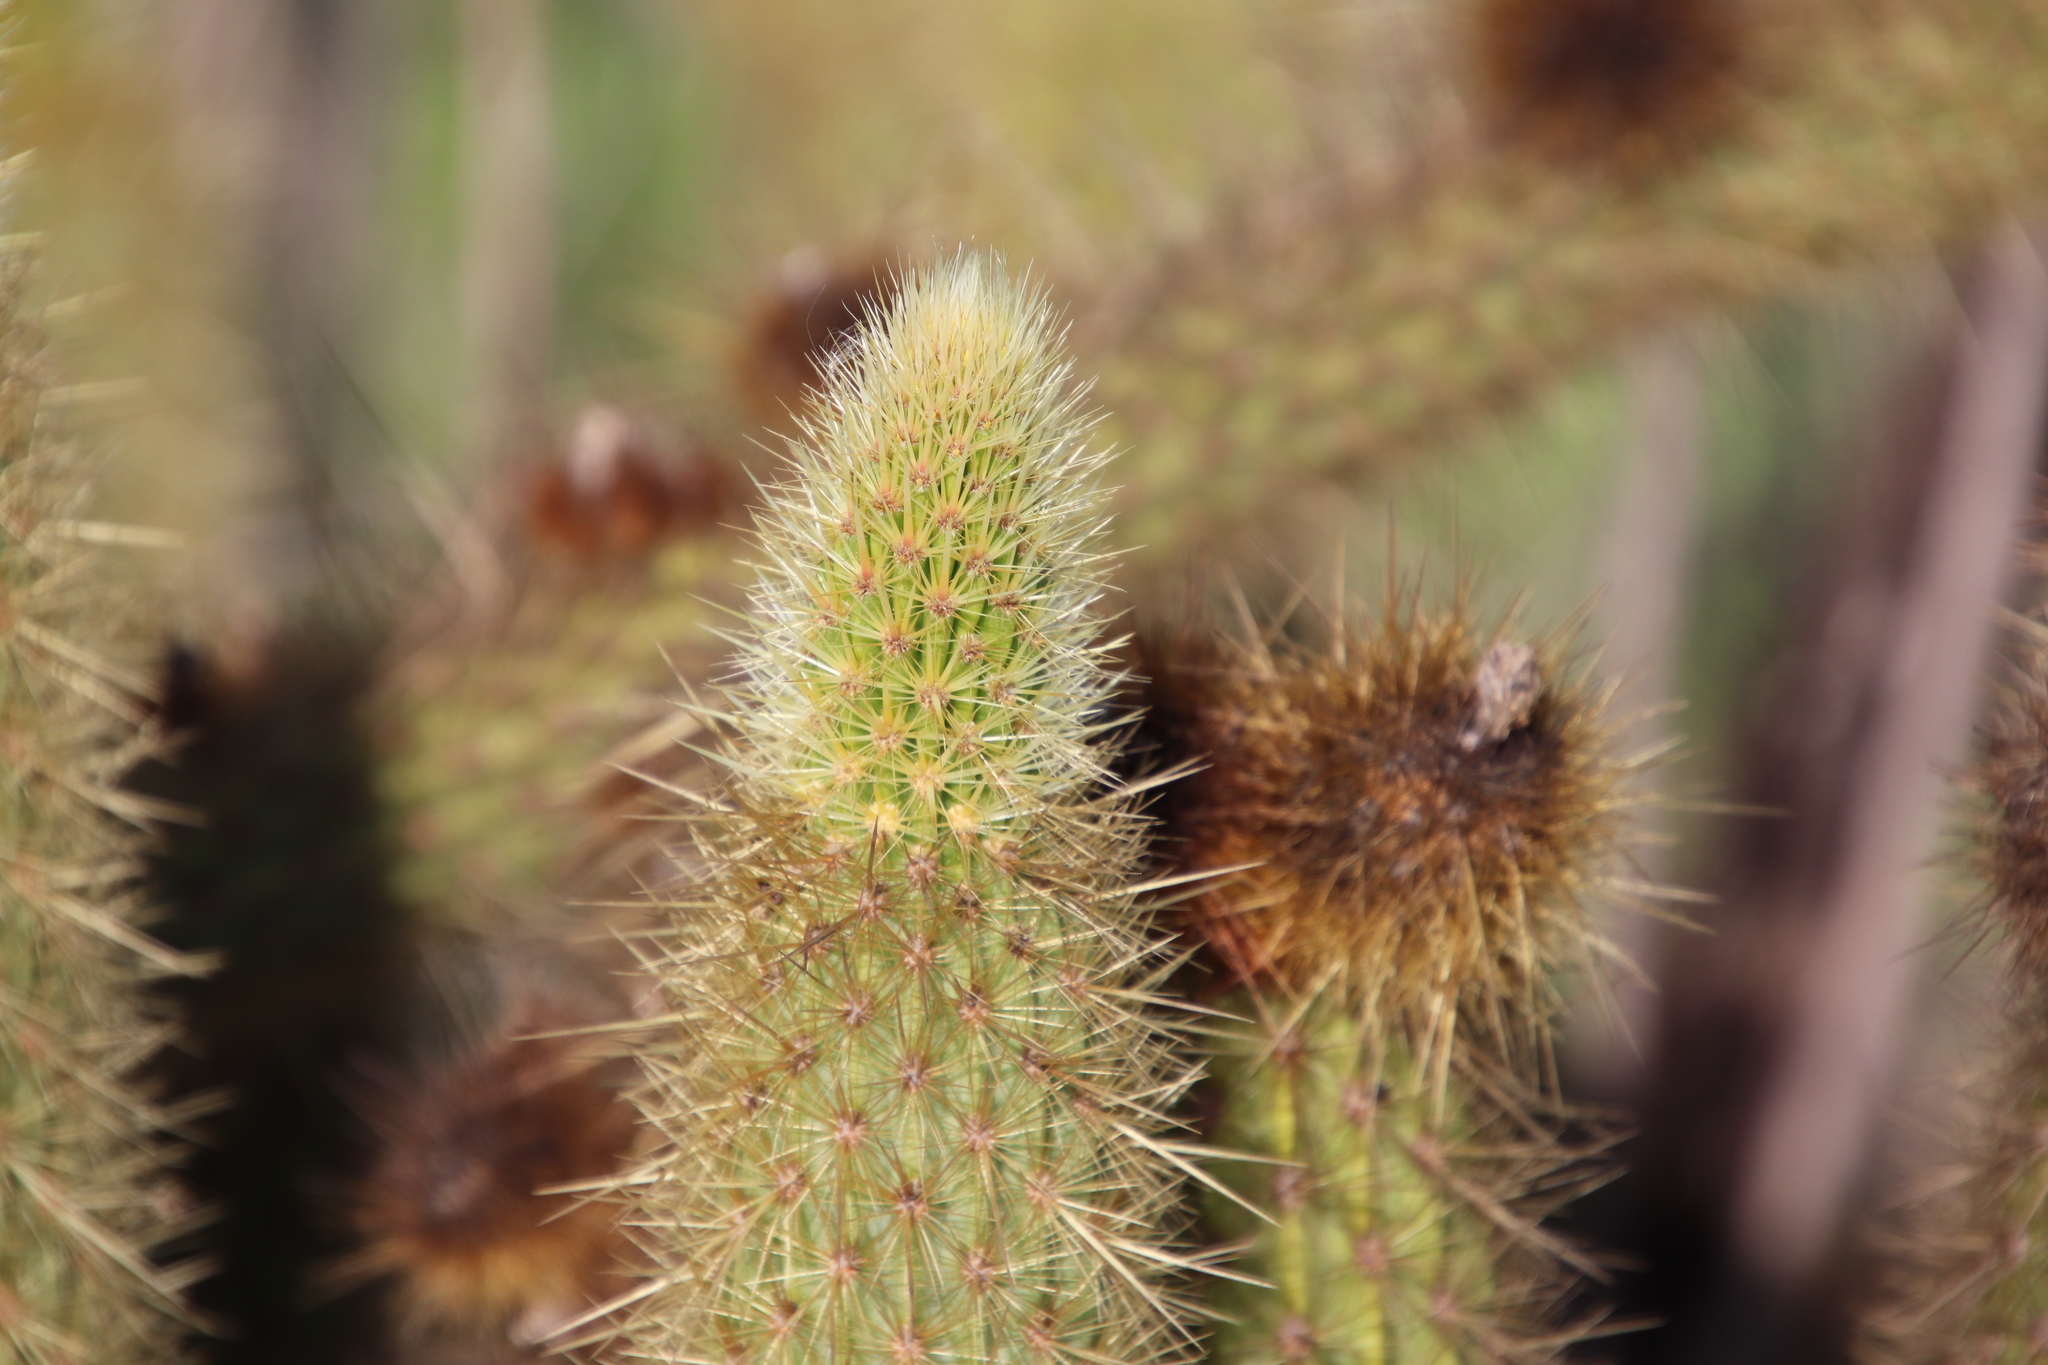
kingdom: Plantae
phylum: Tracheophyta
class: Magnoliopsida
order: Caryophyllales
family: Cactaceae
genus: Bergerocactus
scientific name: Bergerocactus emoryi
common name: Golden snakecactus
